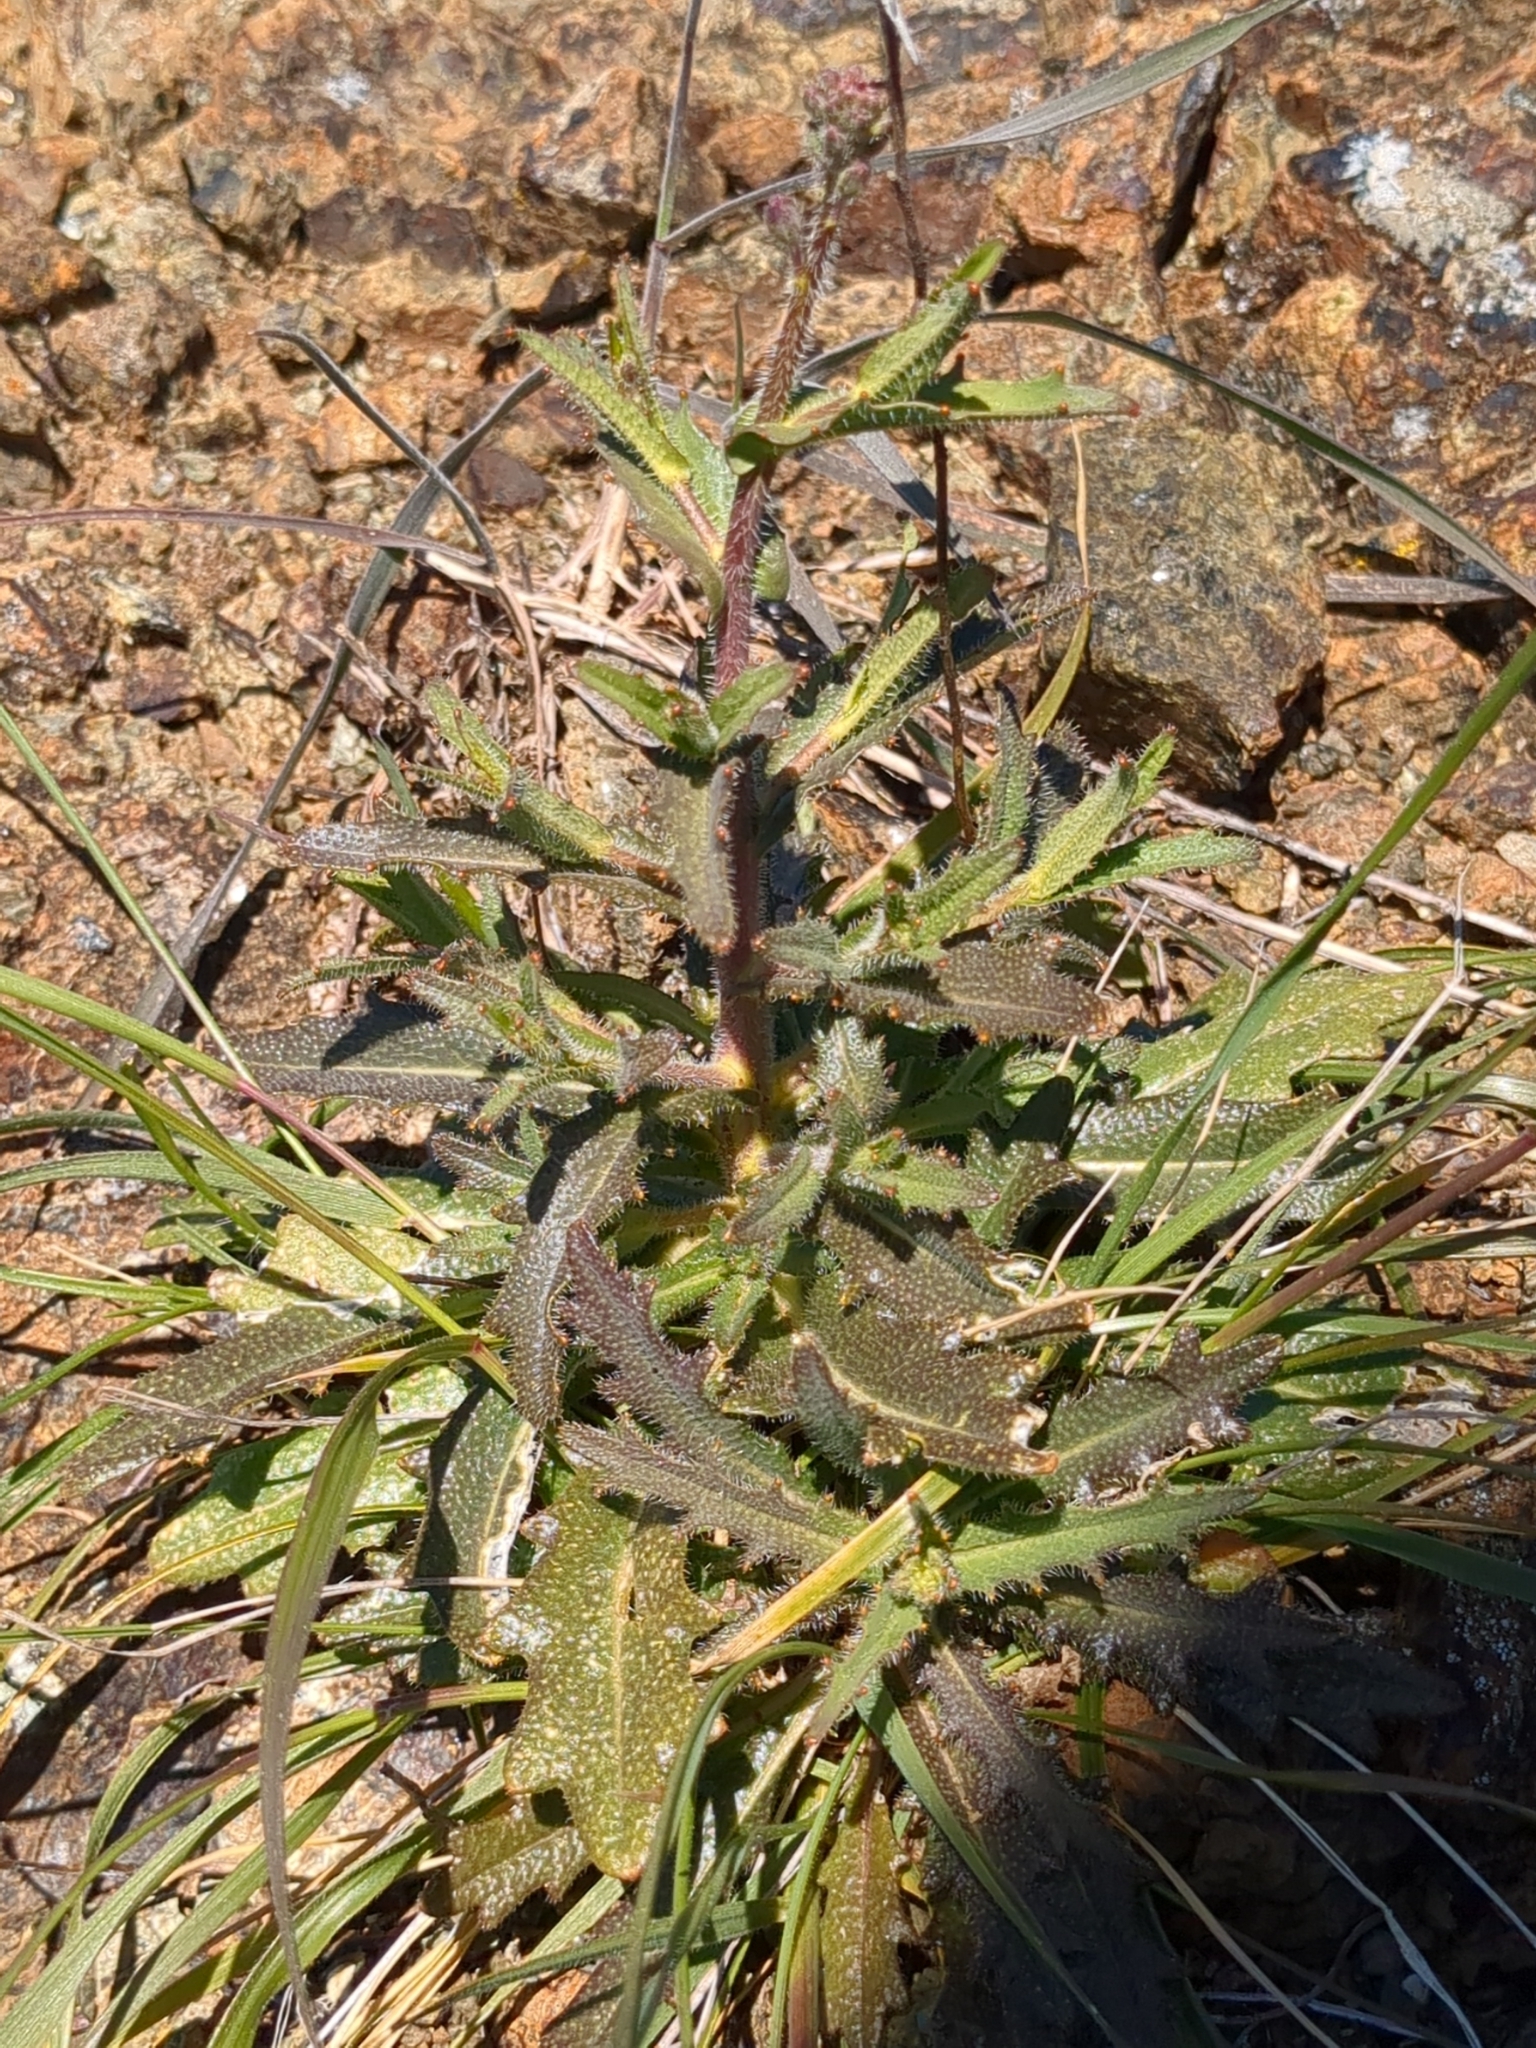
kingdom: Plantae
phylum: Tracheophyta
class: Magnoliopsida
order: Brassicales
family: Brassicaceae
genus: Streptanthus
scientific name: Streptanthus glandulosus
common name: Jewel-flower
